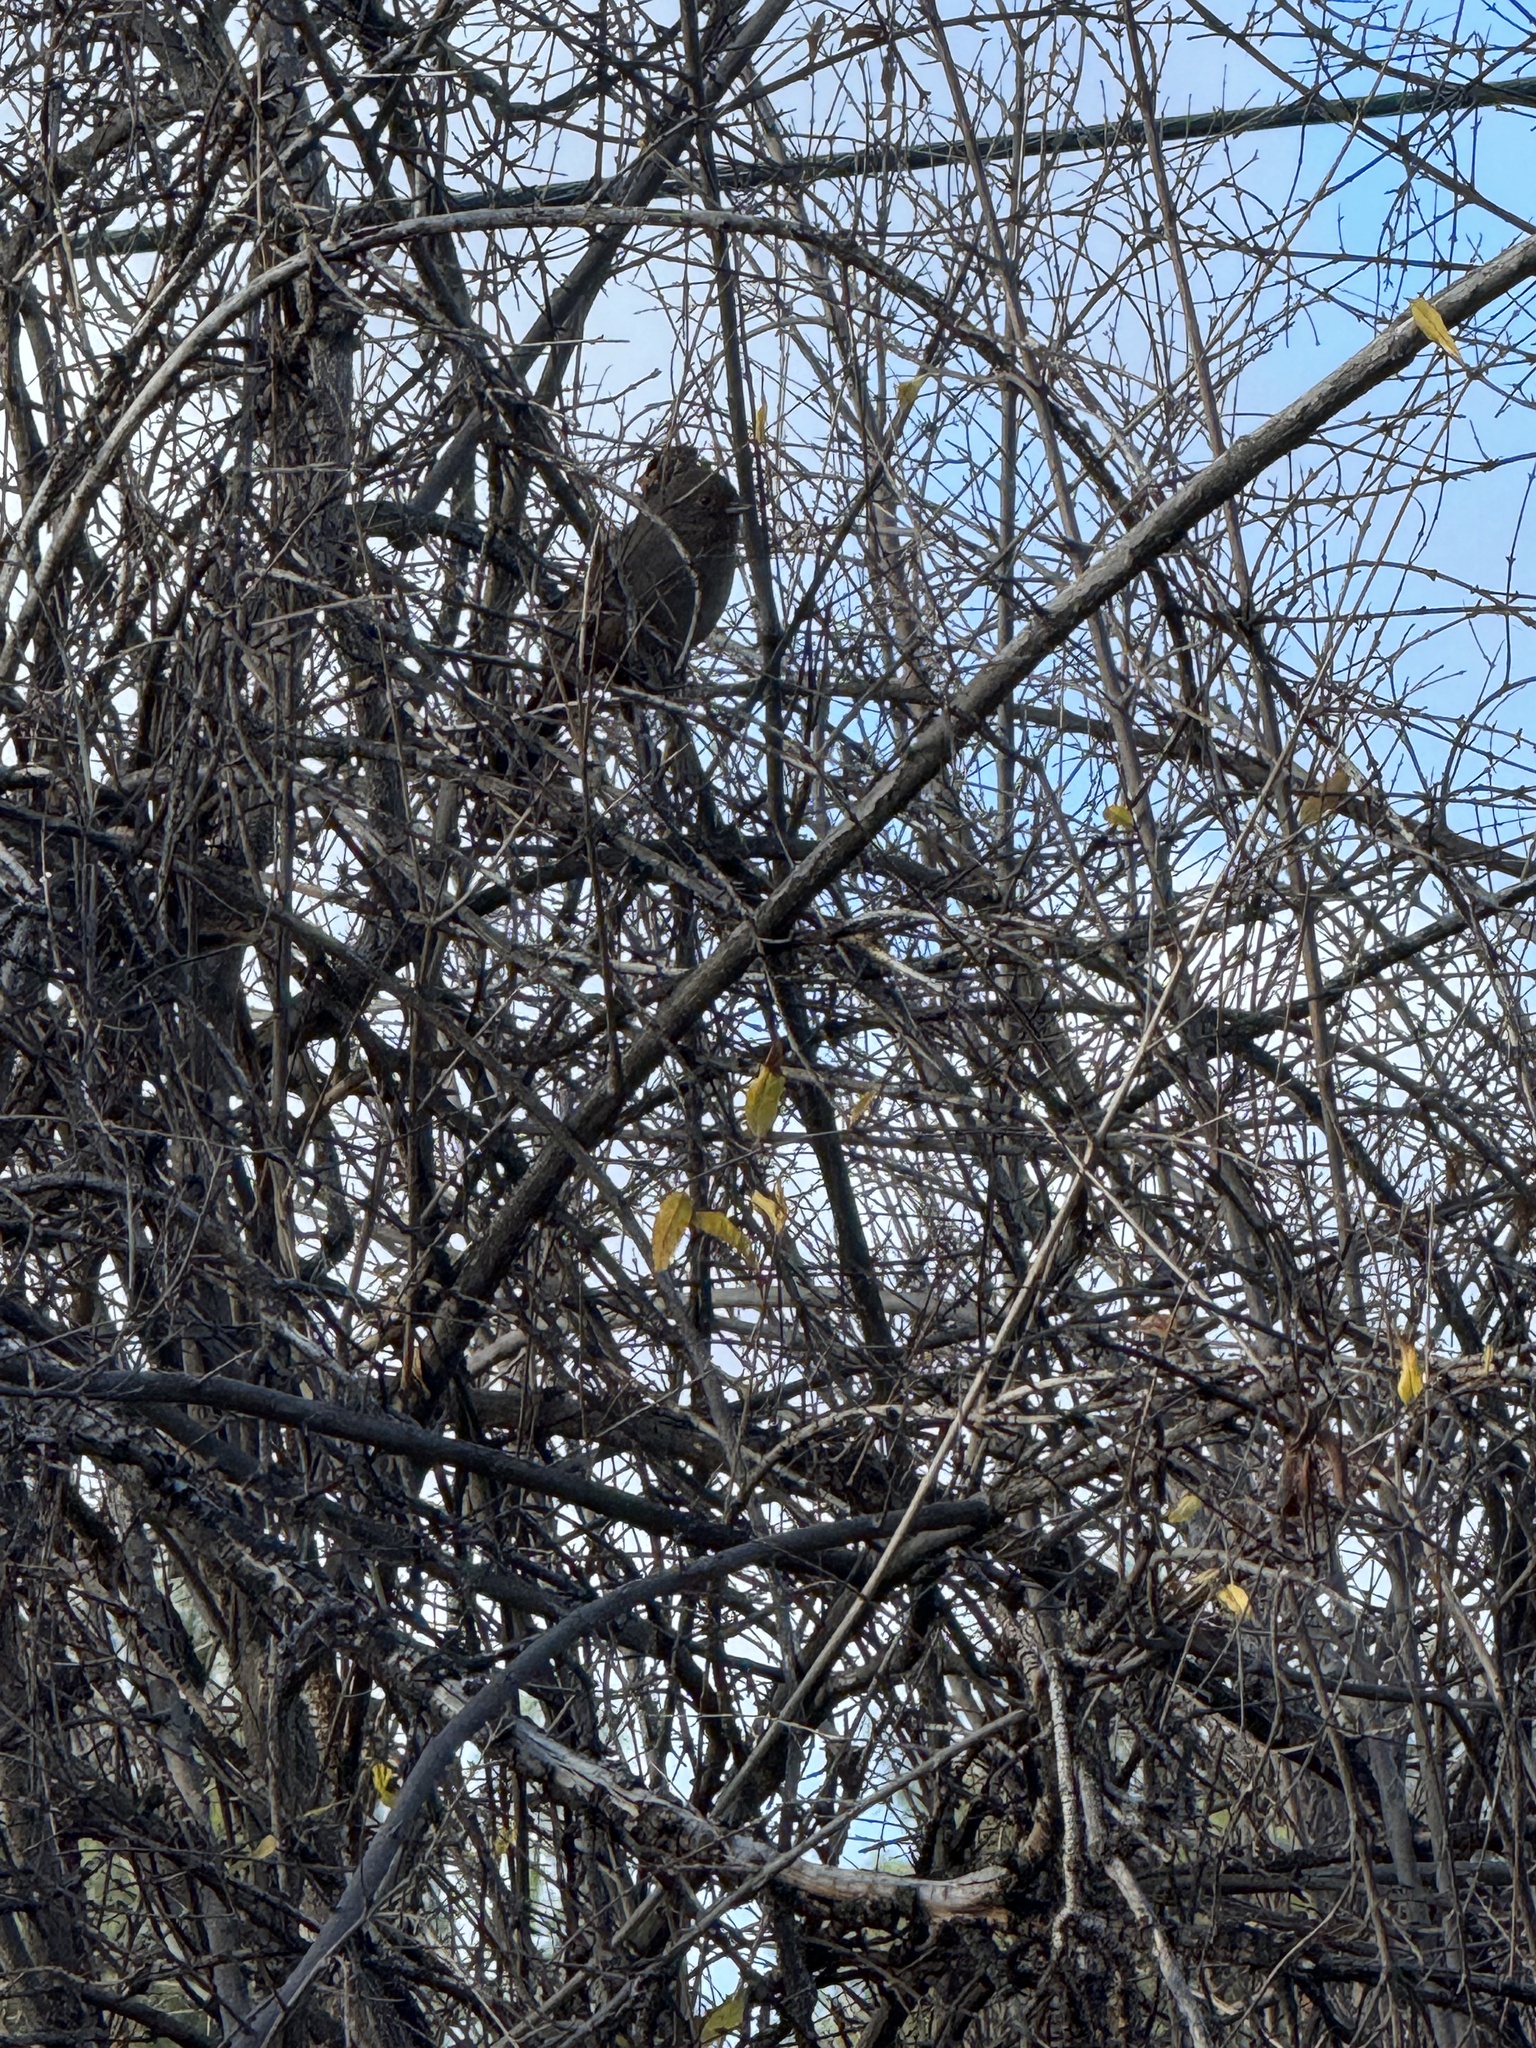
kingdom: Animalia
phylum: Chordata
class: Aves
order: Passeriformes
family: Passerellidae
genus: Melozone
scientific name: Melozone crissalis
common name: California towhee
